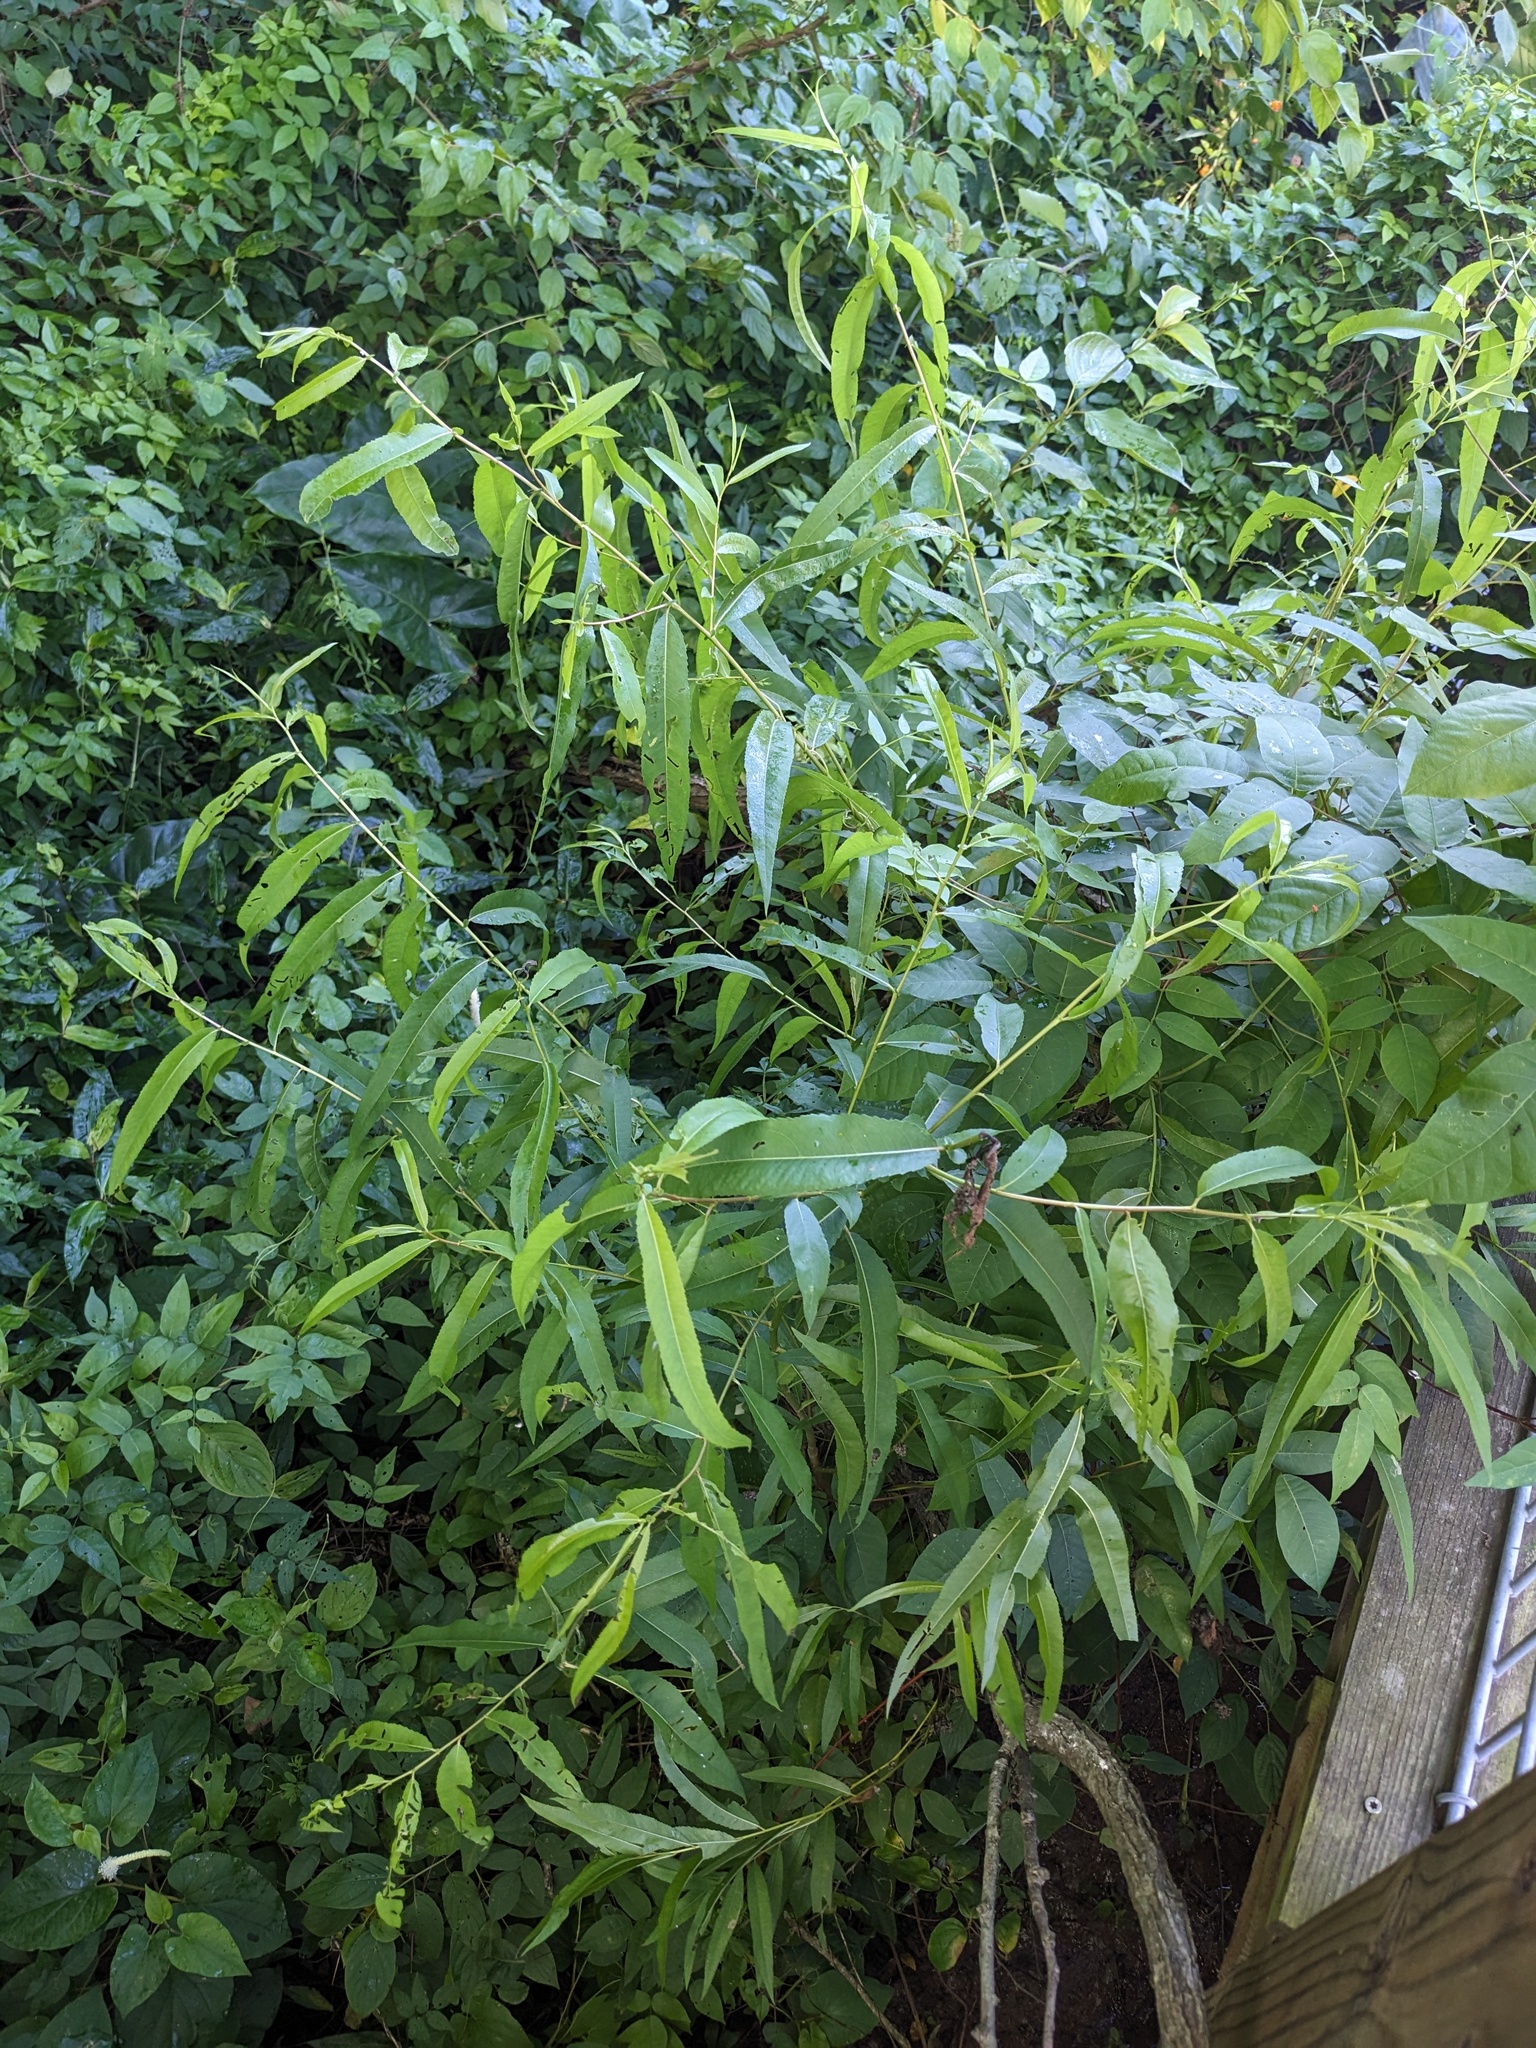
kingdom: Plantae
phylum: Tracheophyta
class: Magnoliopsida
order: Malpighiales
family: Salicaceae
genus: Salix
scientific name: Salix nigra
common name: Black willow
